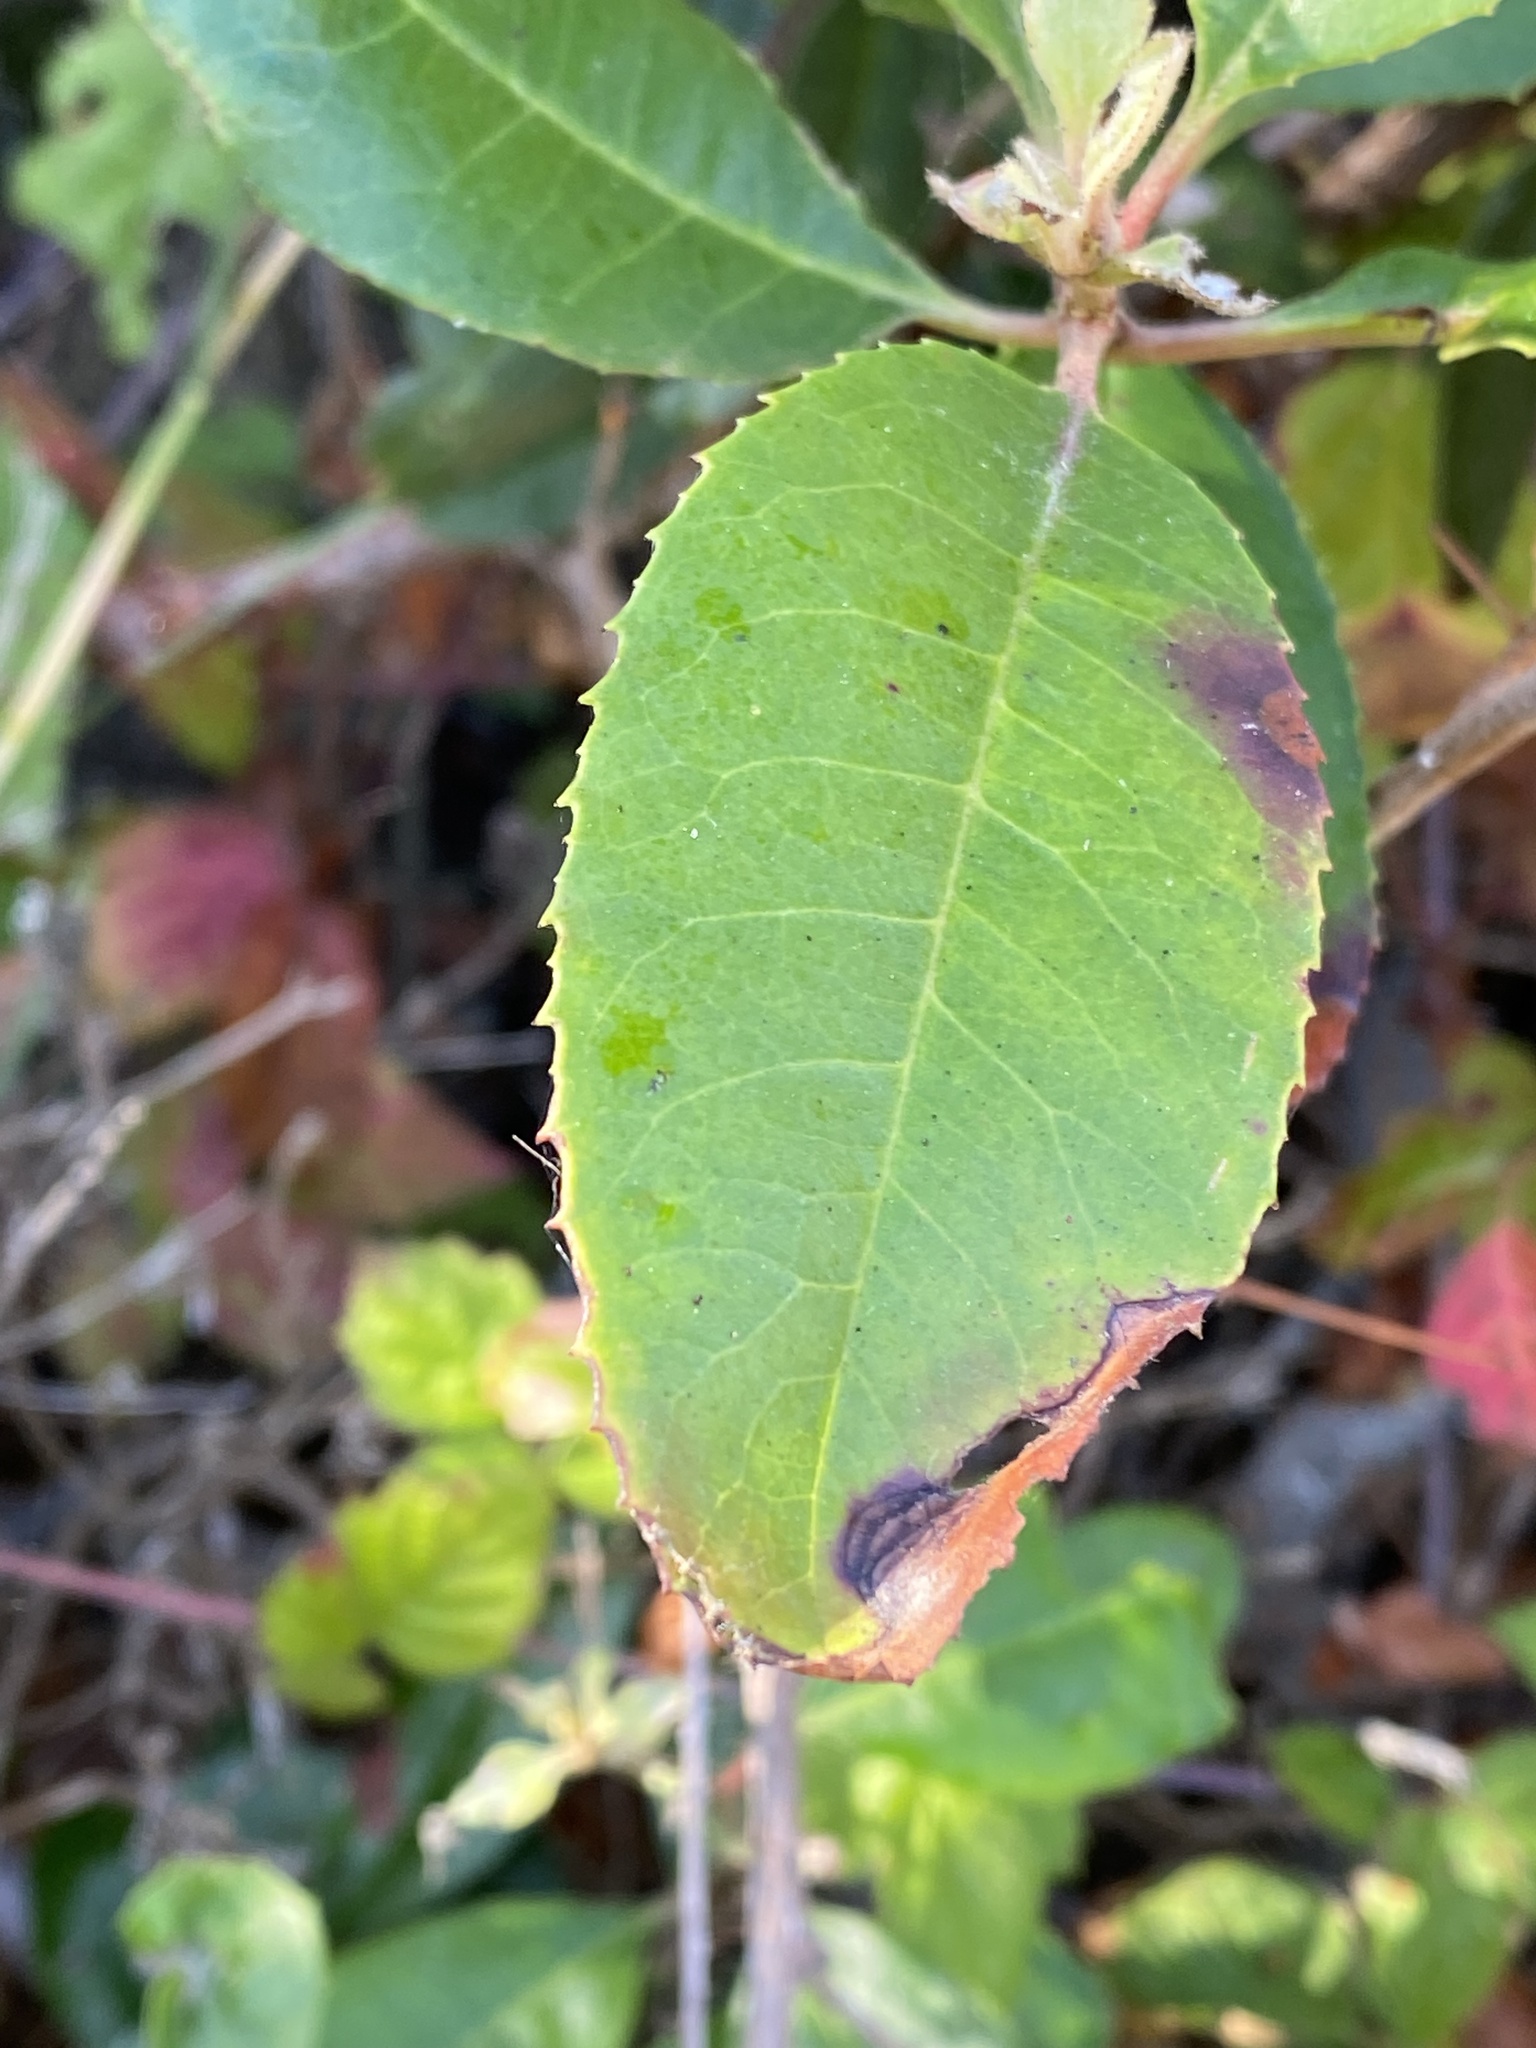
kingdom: Plantae
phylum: Tracheophyta
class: Magnoliopsida
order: Rosales
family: Rosaceae
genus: Heteromeles
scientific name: Heteromeles arbutifolia
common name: California-holly
